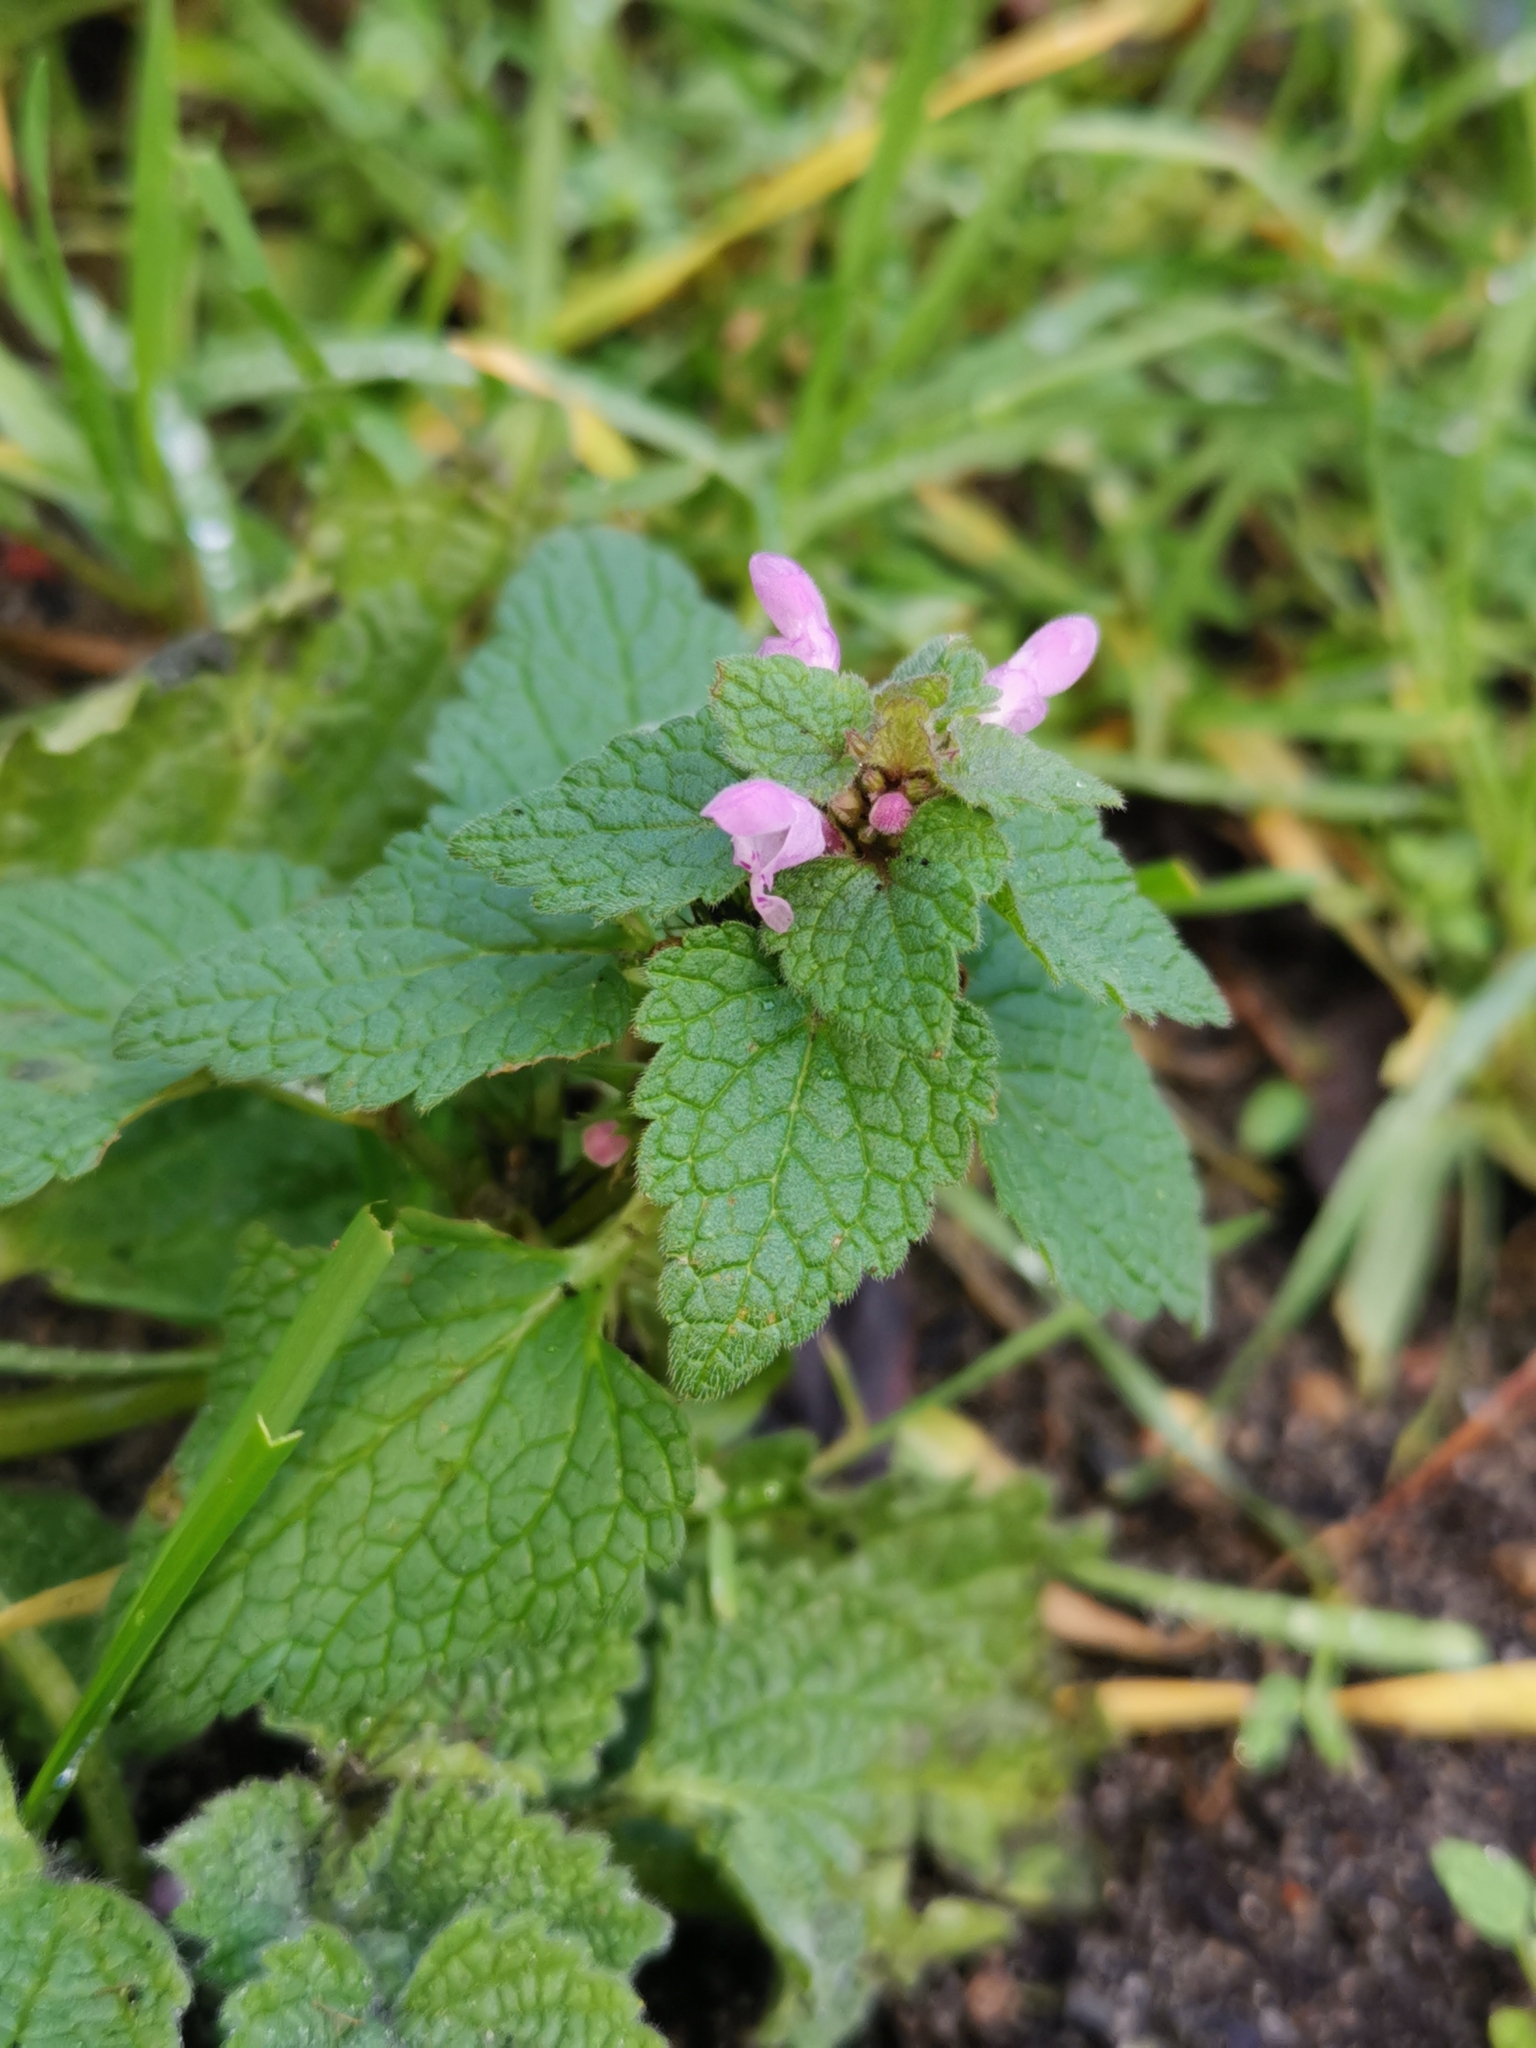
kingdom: Plantae
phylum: Tracheophyta
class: Magnoliopsida
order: Lamiales
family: Lamiaceae
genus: Lamium
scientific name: Lamium purpureum
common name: Red dead-nettle
